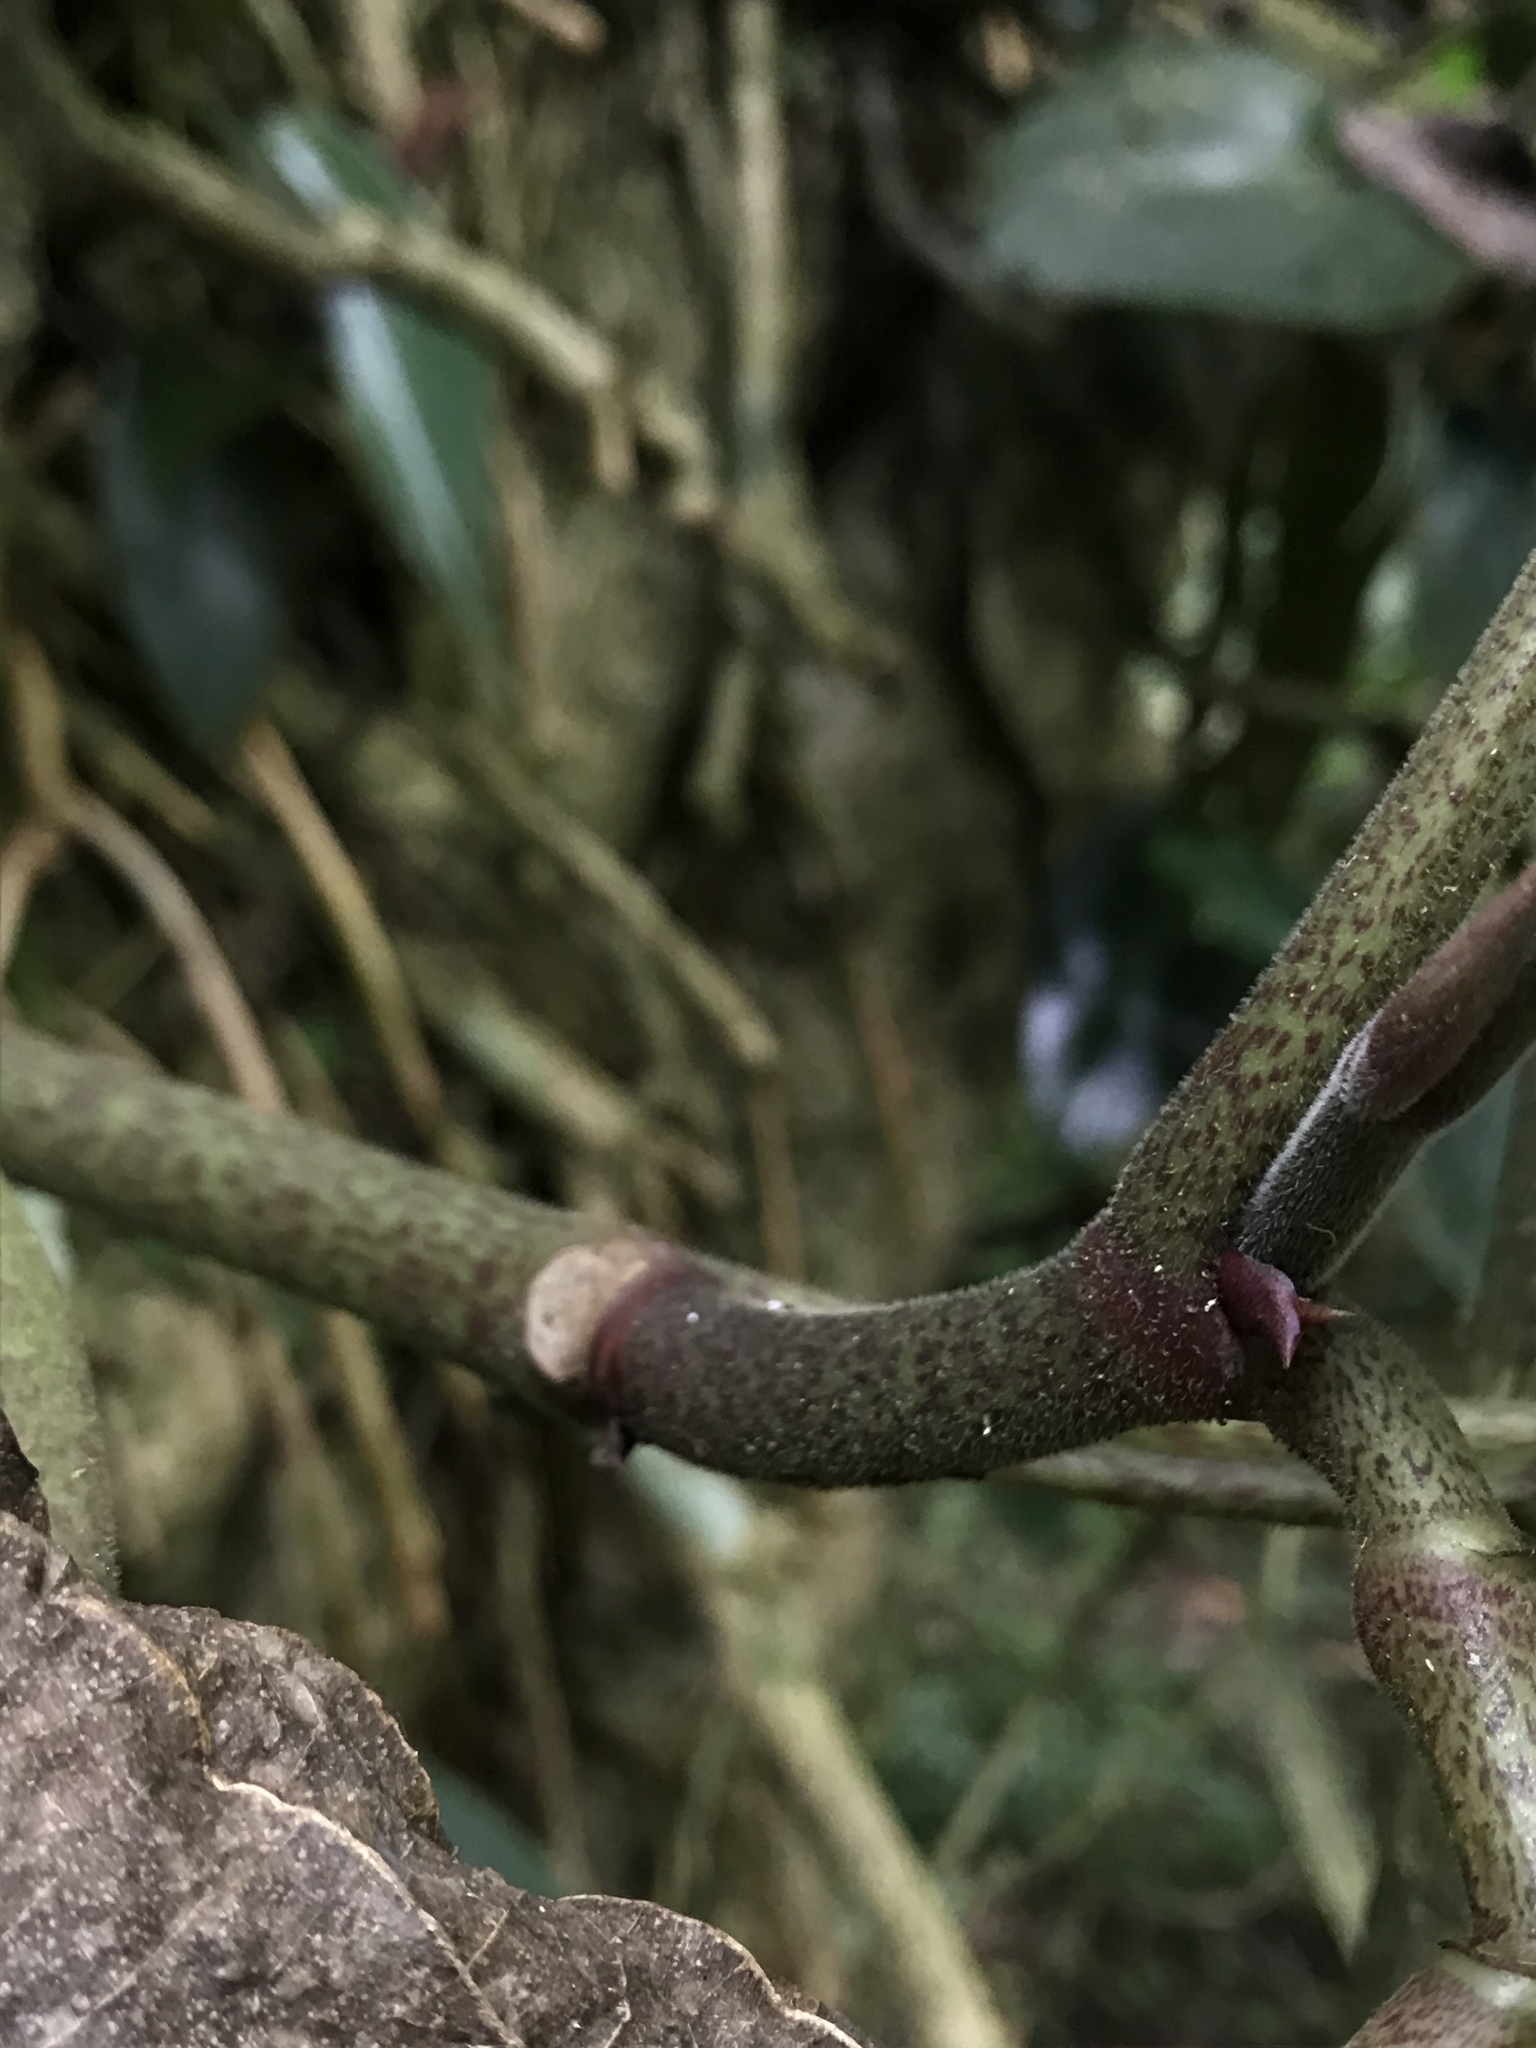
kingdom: Plantae
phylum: Tracheophyta
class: Magnoliopsida
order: Piperales
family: Piperaceae
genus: Peperomia
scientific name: Peperomia maculosa
